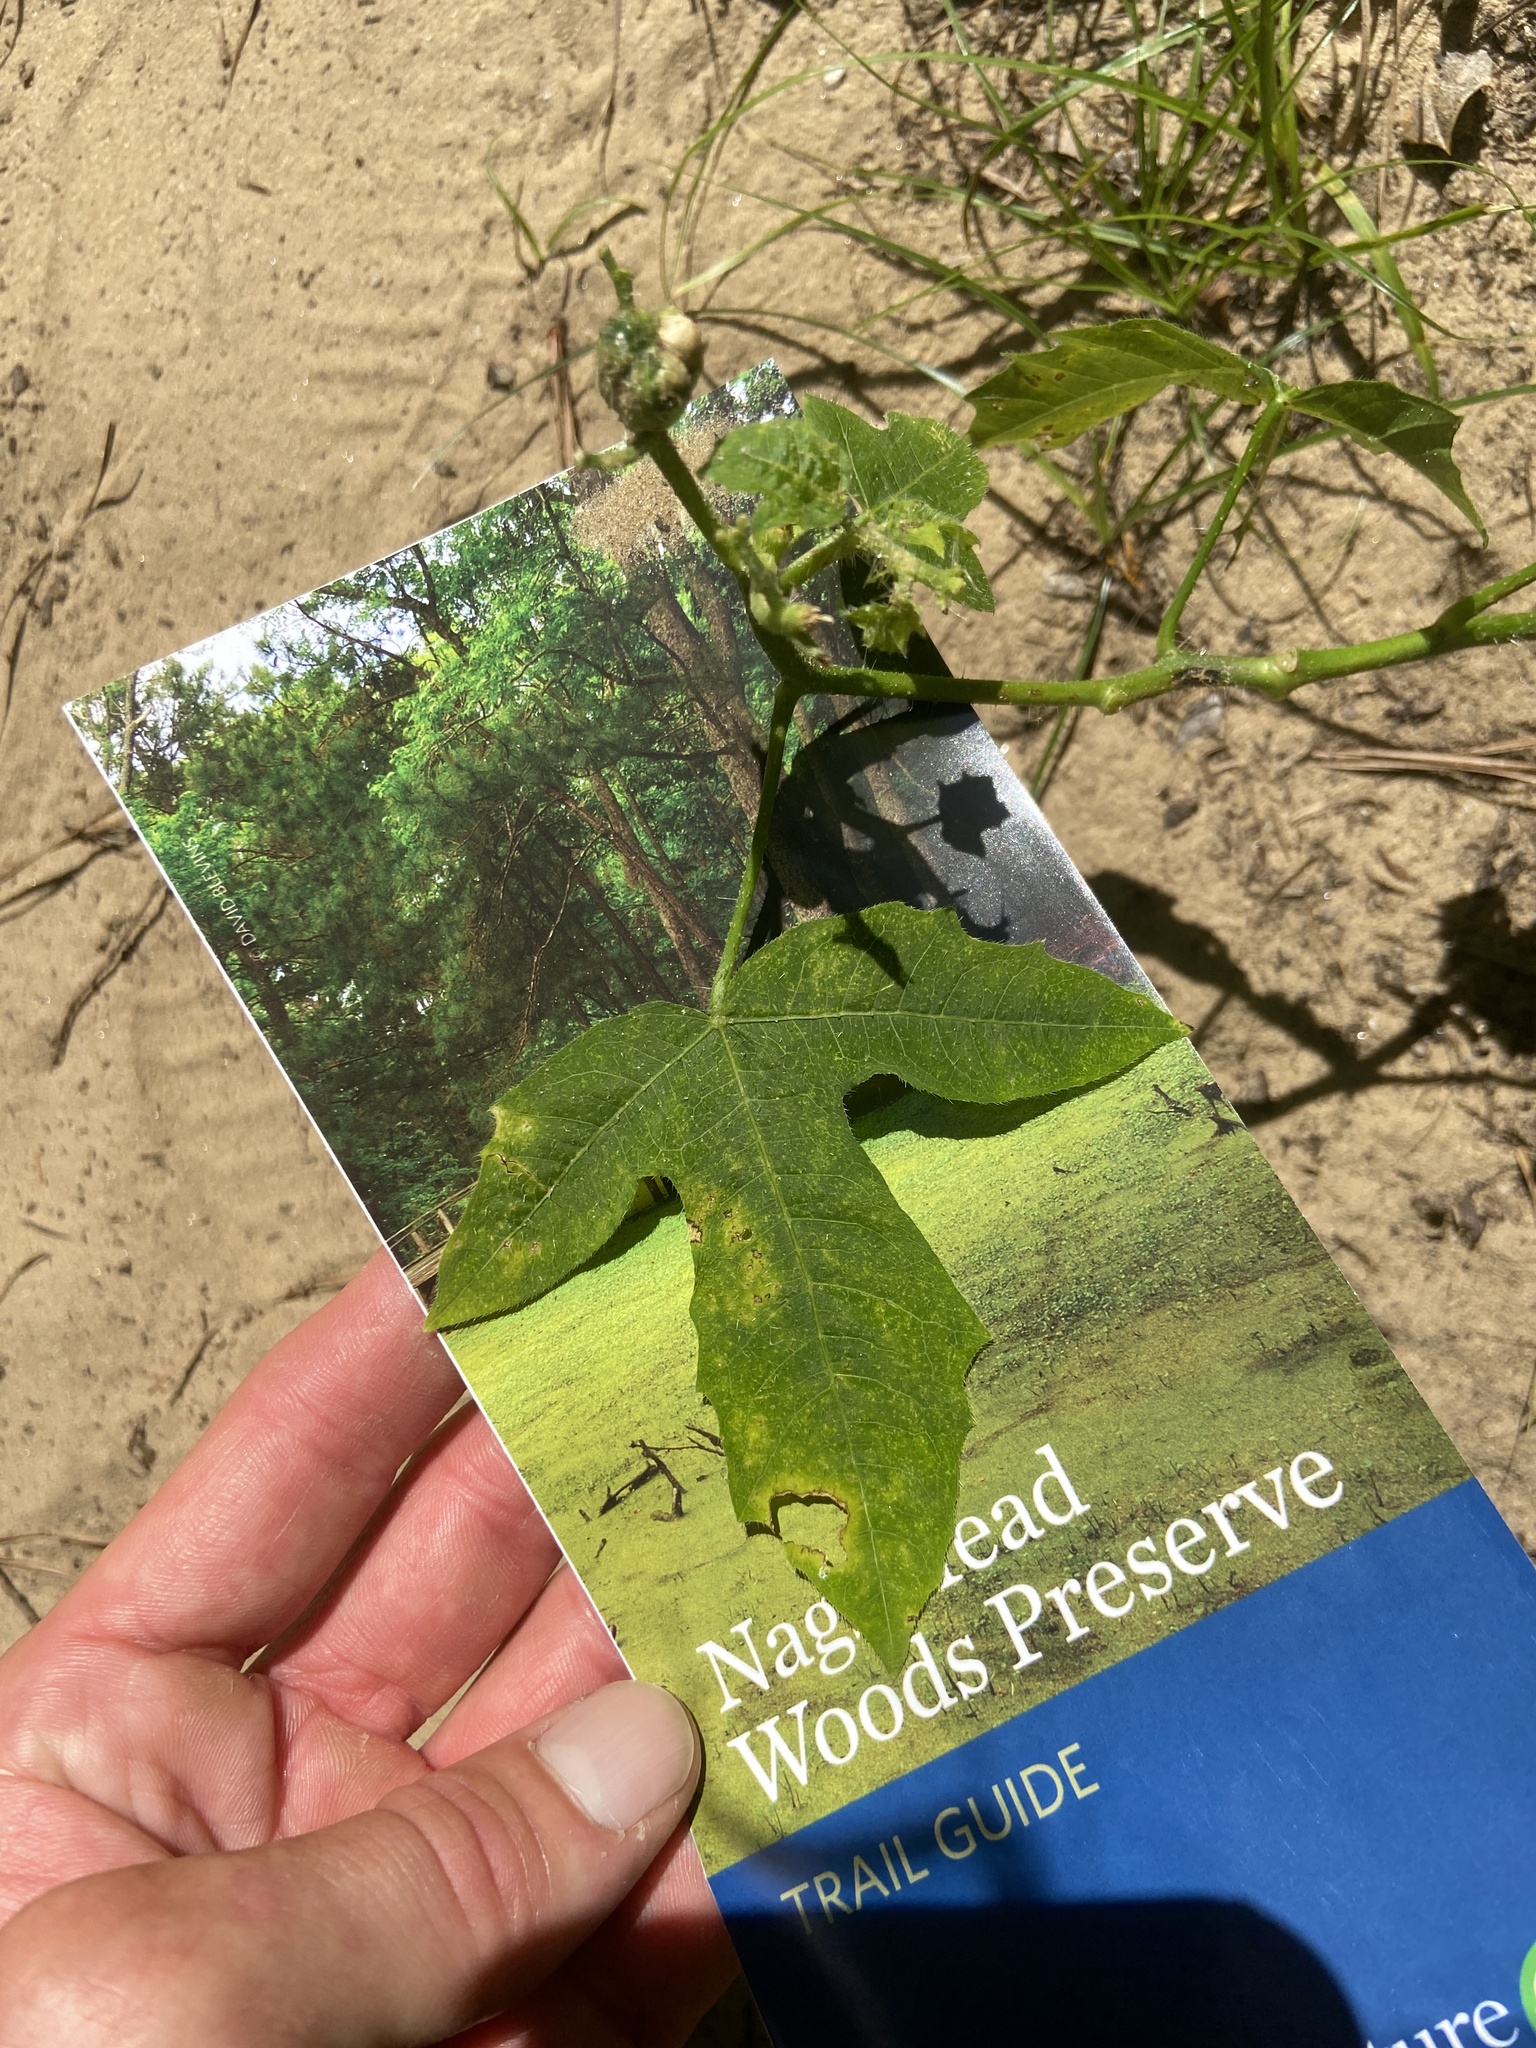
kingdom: Plantae
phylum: Tracheophyta
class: Magnoliopsida
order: Malpighiales
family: Euphorbiaceae
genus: Cnidoscolus
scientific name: Cnidoscolus stimulosus
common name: Bull-nettle
